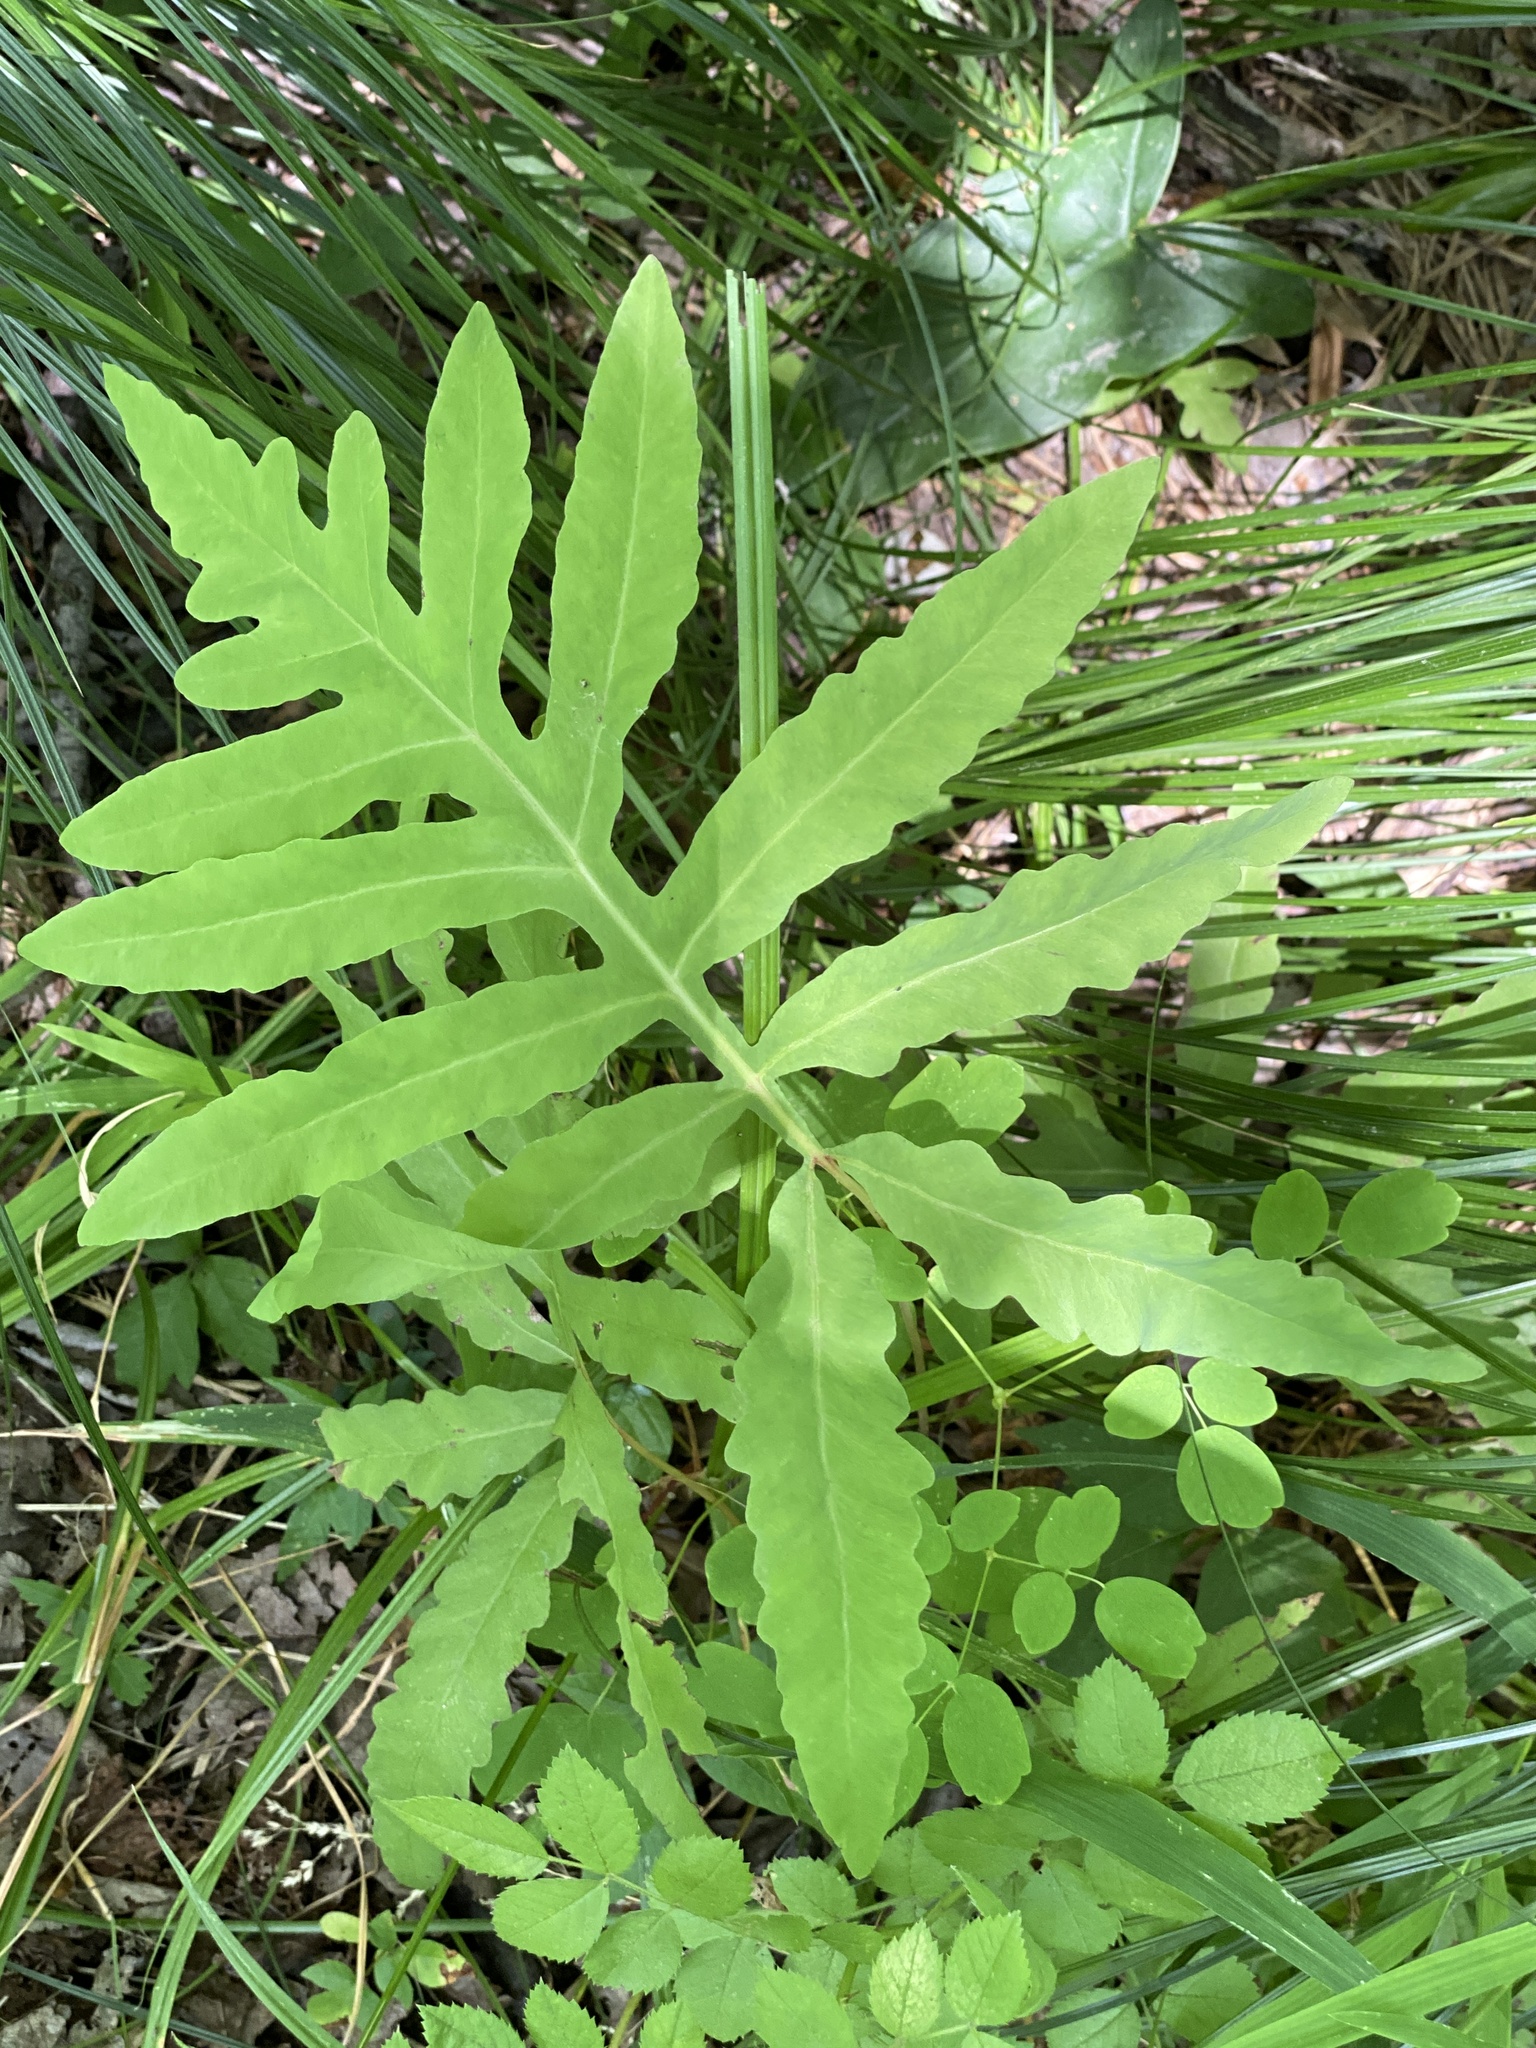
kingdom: Plantae
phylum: Tracheophyta
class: Polypodiopsida
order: Polypodiales
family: Onocleaceae
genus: Onoclea
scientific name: Onoclea sensibilis
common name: Sensitive fern
